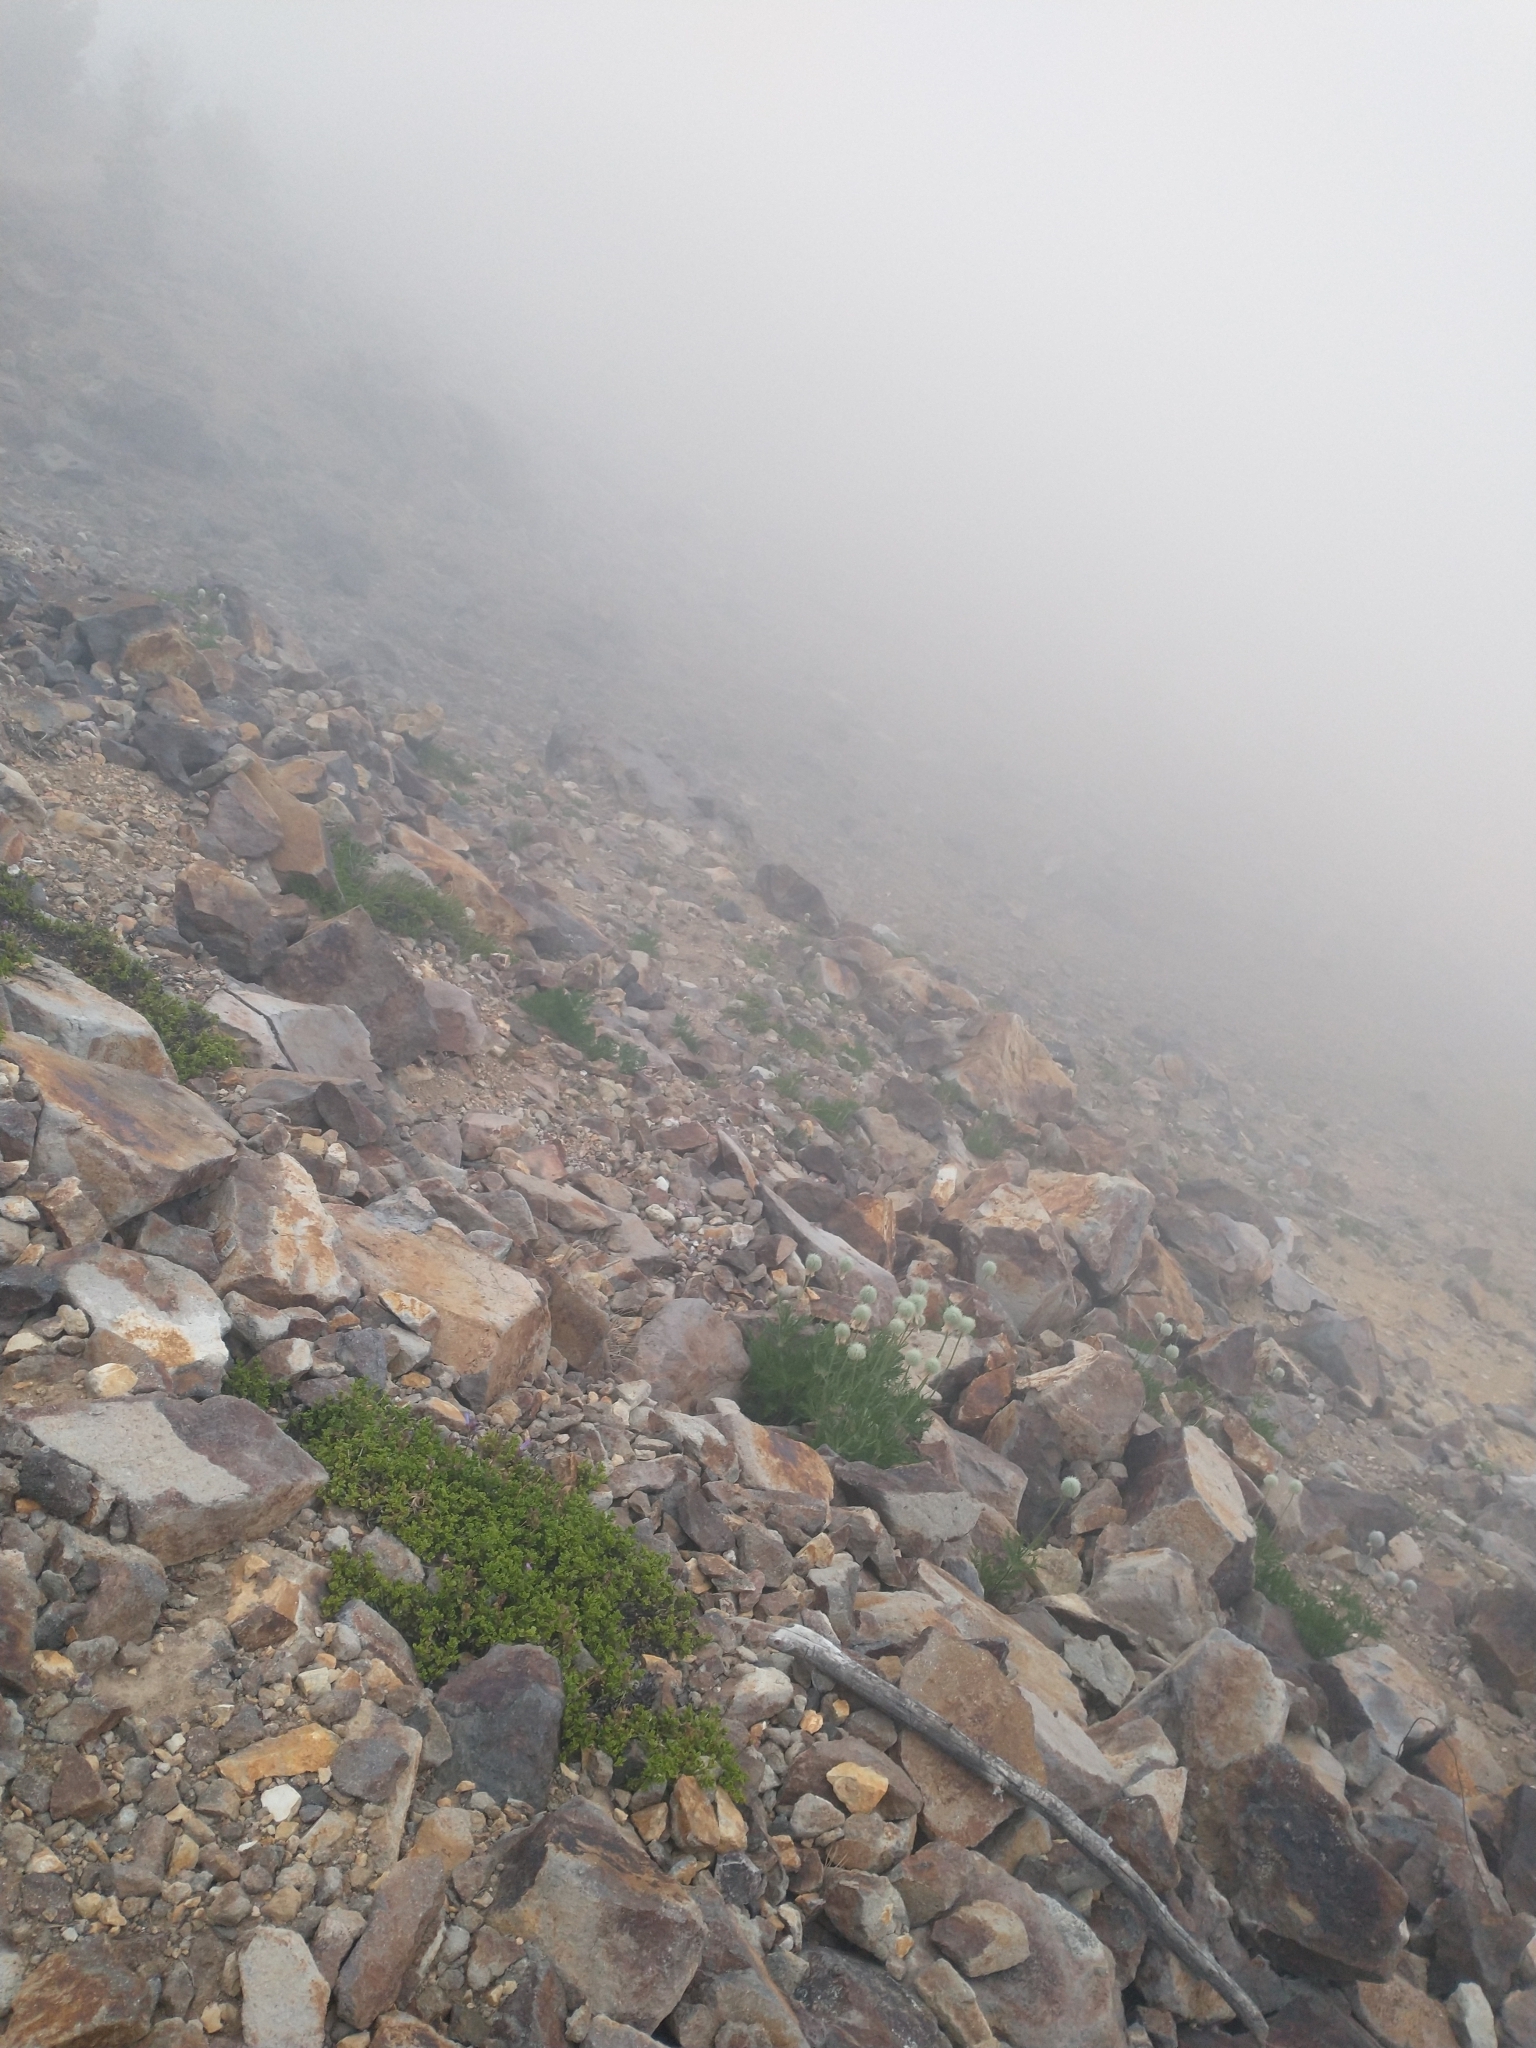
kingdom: Plantae
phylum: Tracheophyta
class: Magnoliopsida
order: Ranunculales
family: Ranunculaceae
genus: Pulsatilla
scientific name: Pulsatilla occidentalis
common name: Mountain pasqueflower
